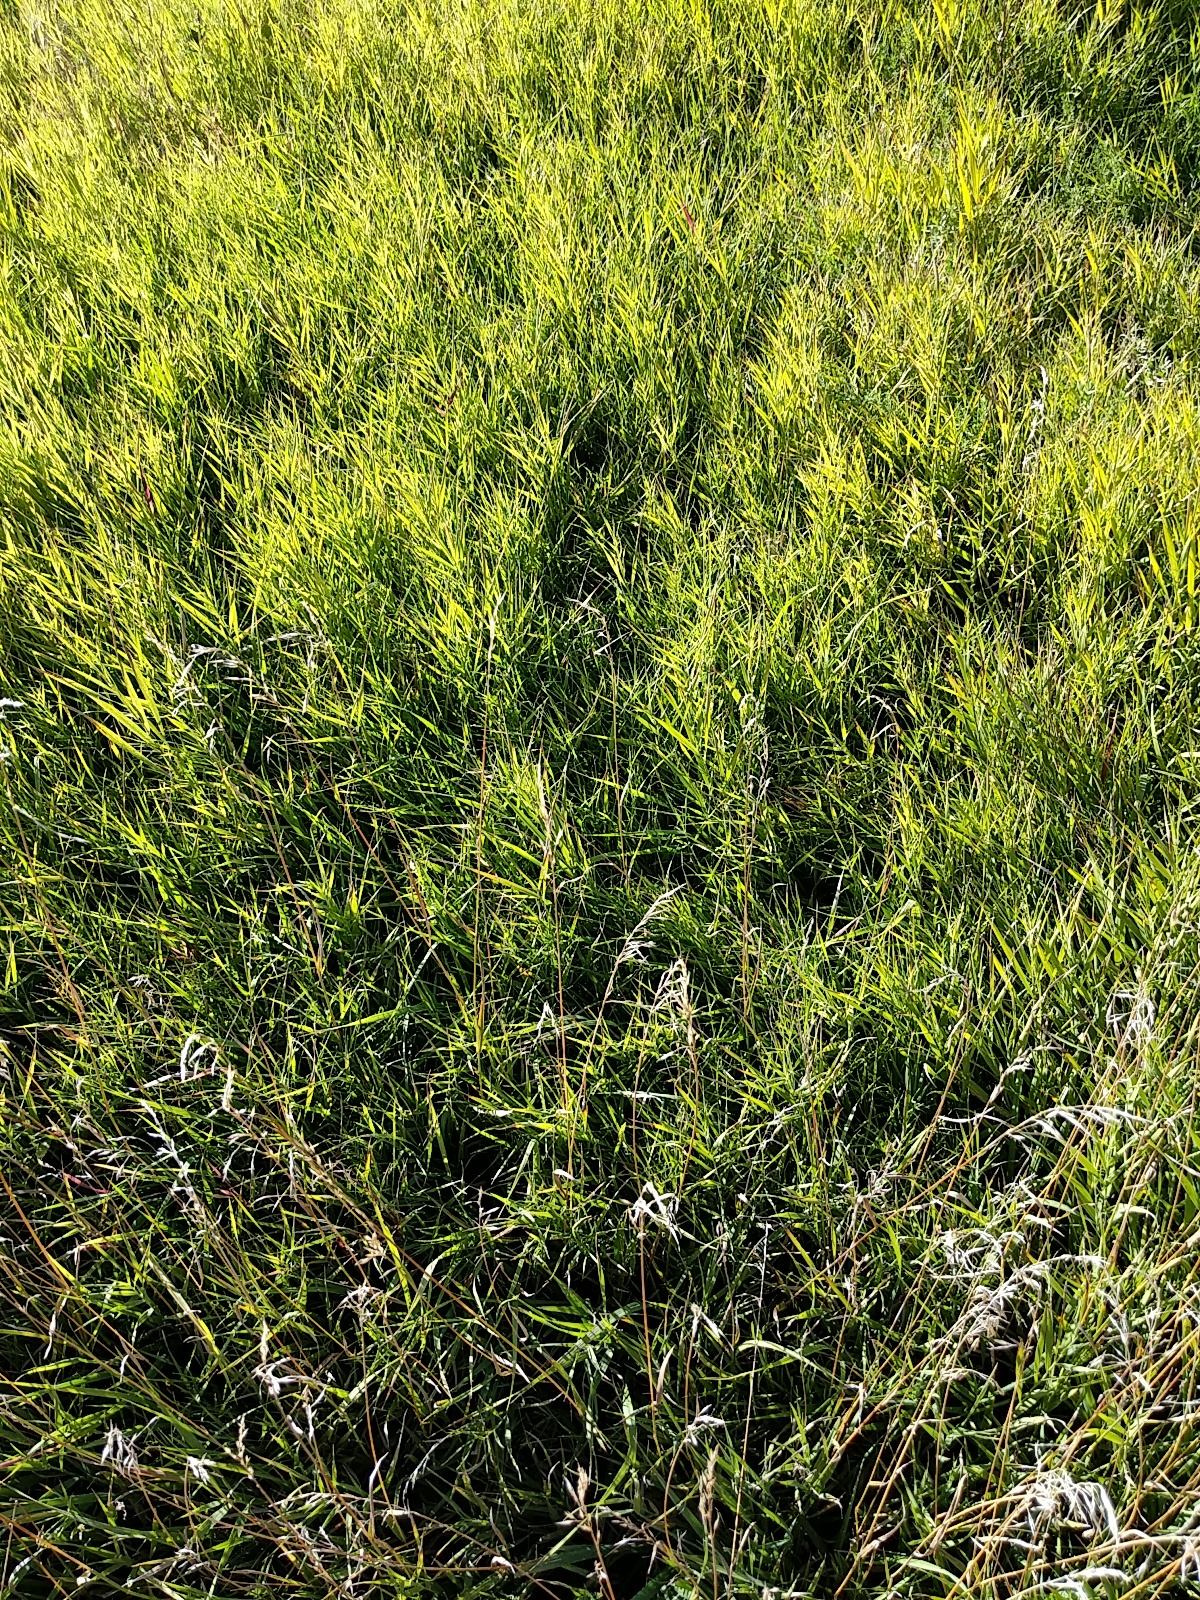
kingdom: Plantae
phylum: Tracheophyta
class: Liliopsida
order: Poales
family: Poaceae
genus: Hilaria
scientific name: Hilaria jamesii
